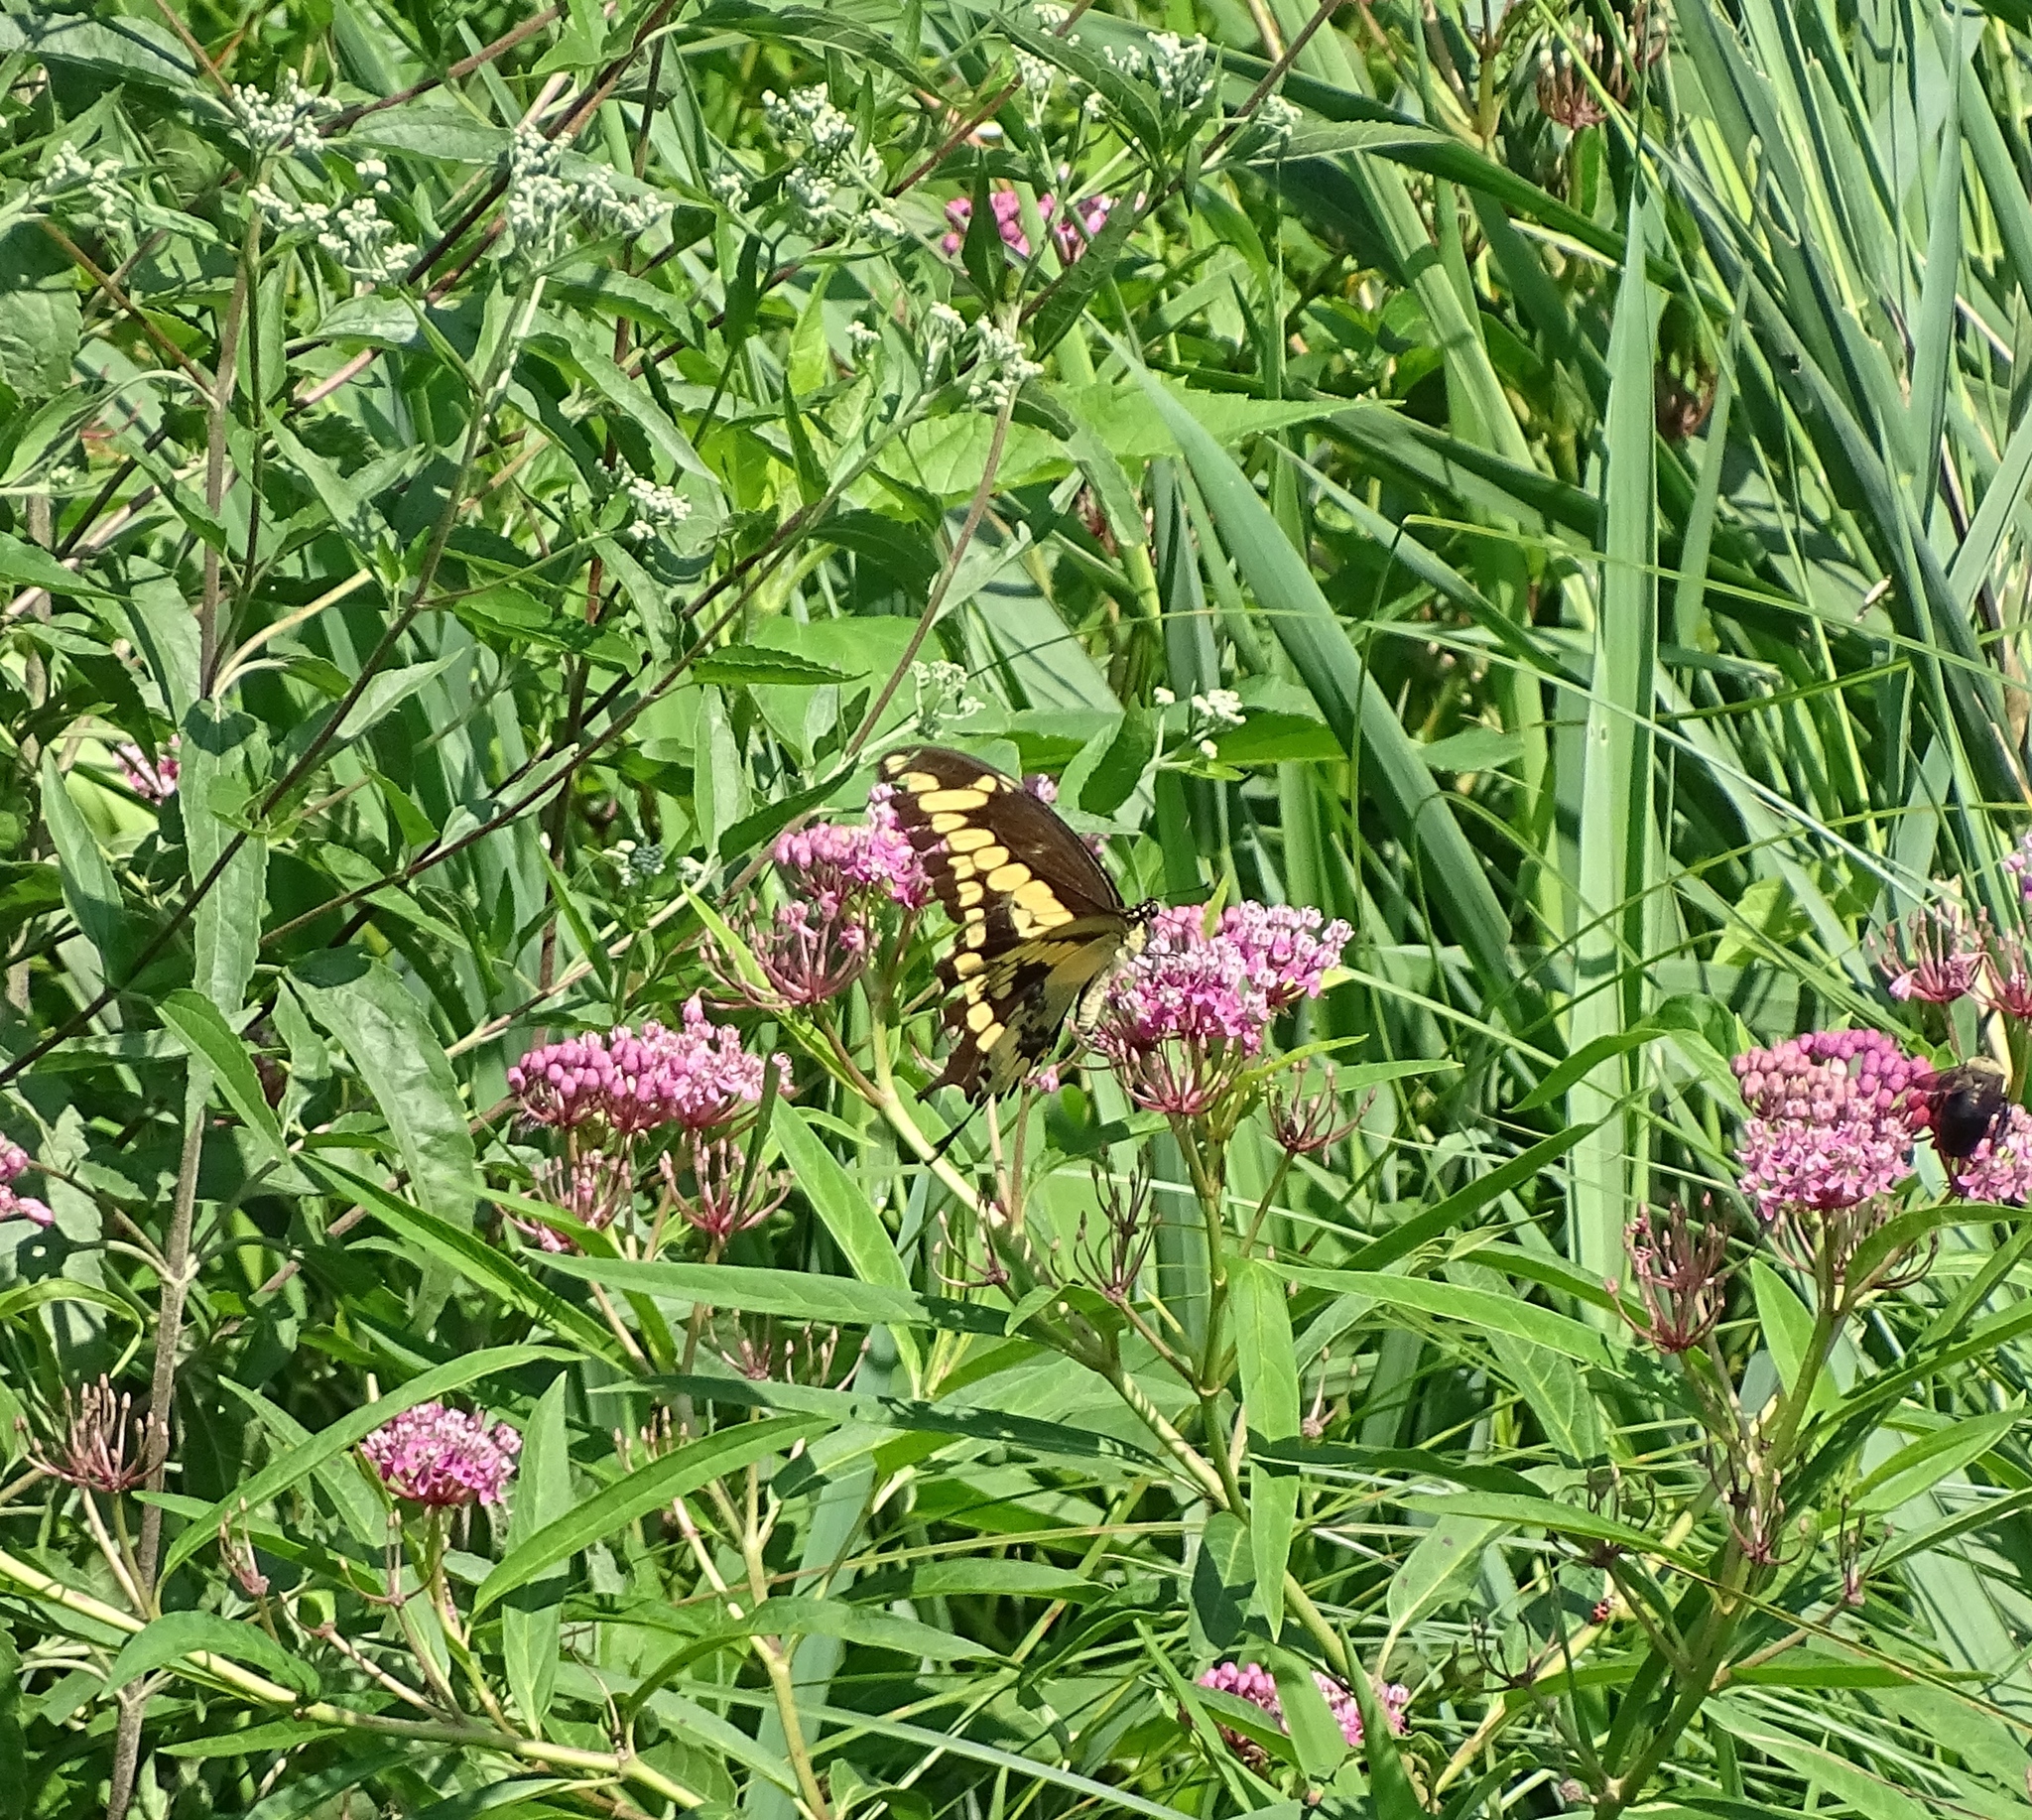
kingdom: Animalia
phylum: Arthropoda
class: Insecta
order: Lepidoptera
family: Papilionidae
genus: Papilio
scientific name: Papilio cresphontes
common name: Giant swallowtail
